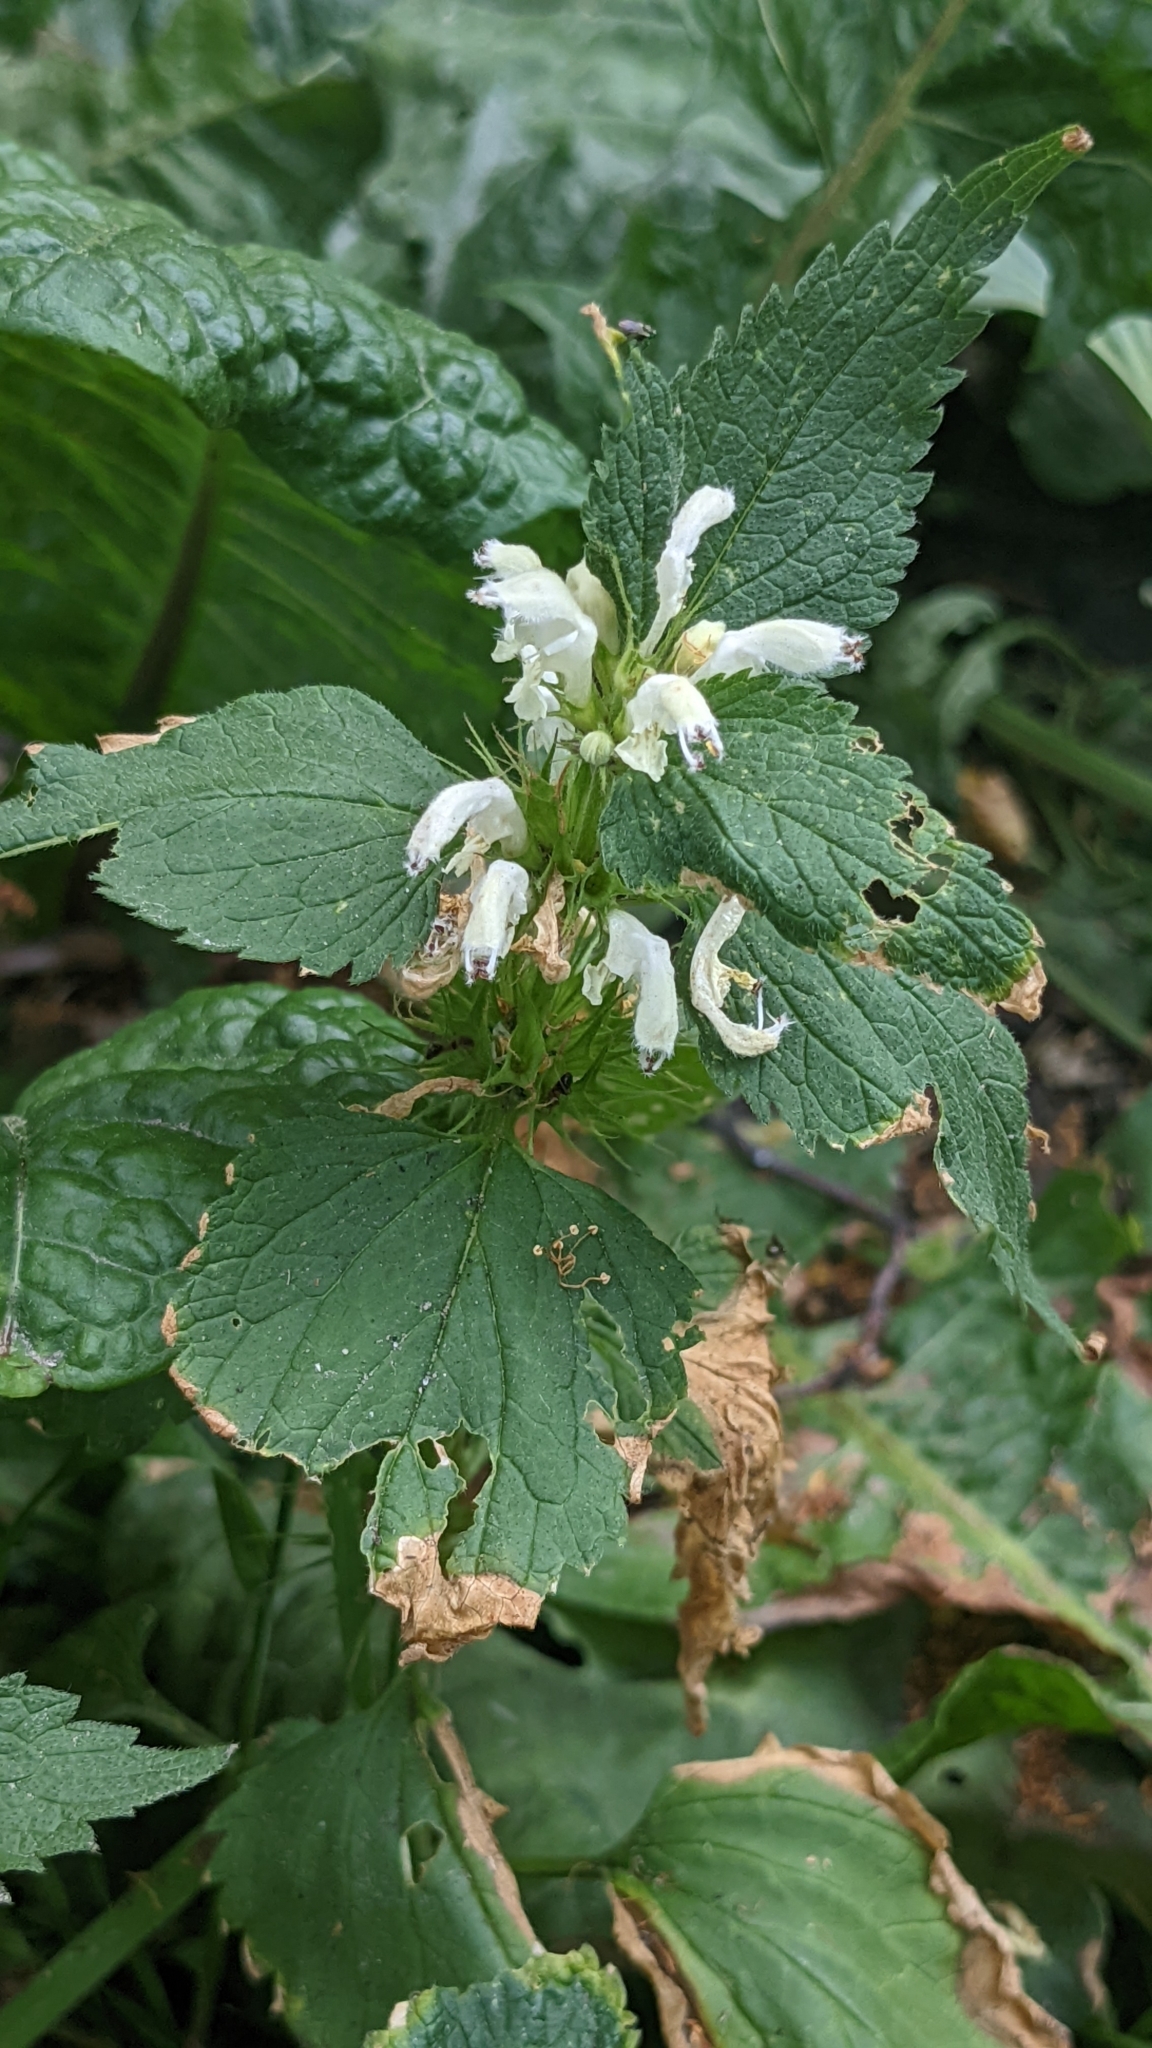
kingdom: Plantae
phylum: Tracheophyta
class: Magnoliopsida
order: Lamiales
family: Lamiaceae
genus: Lamium
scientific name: Lamium album
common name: White dead-nettle
